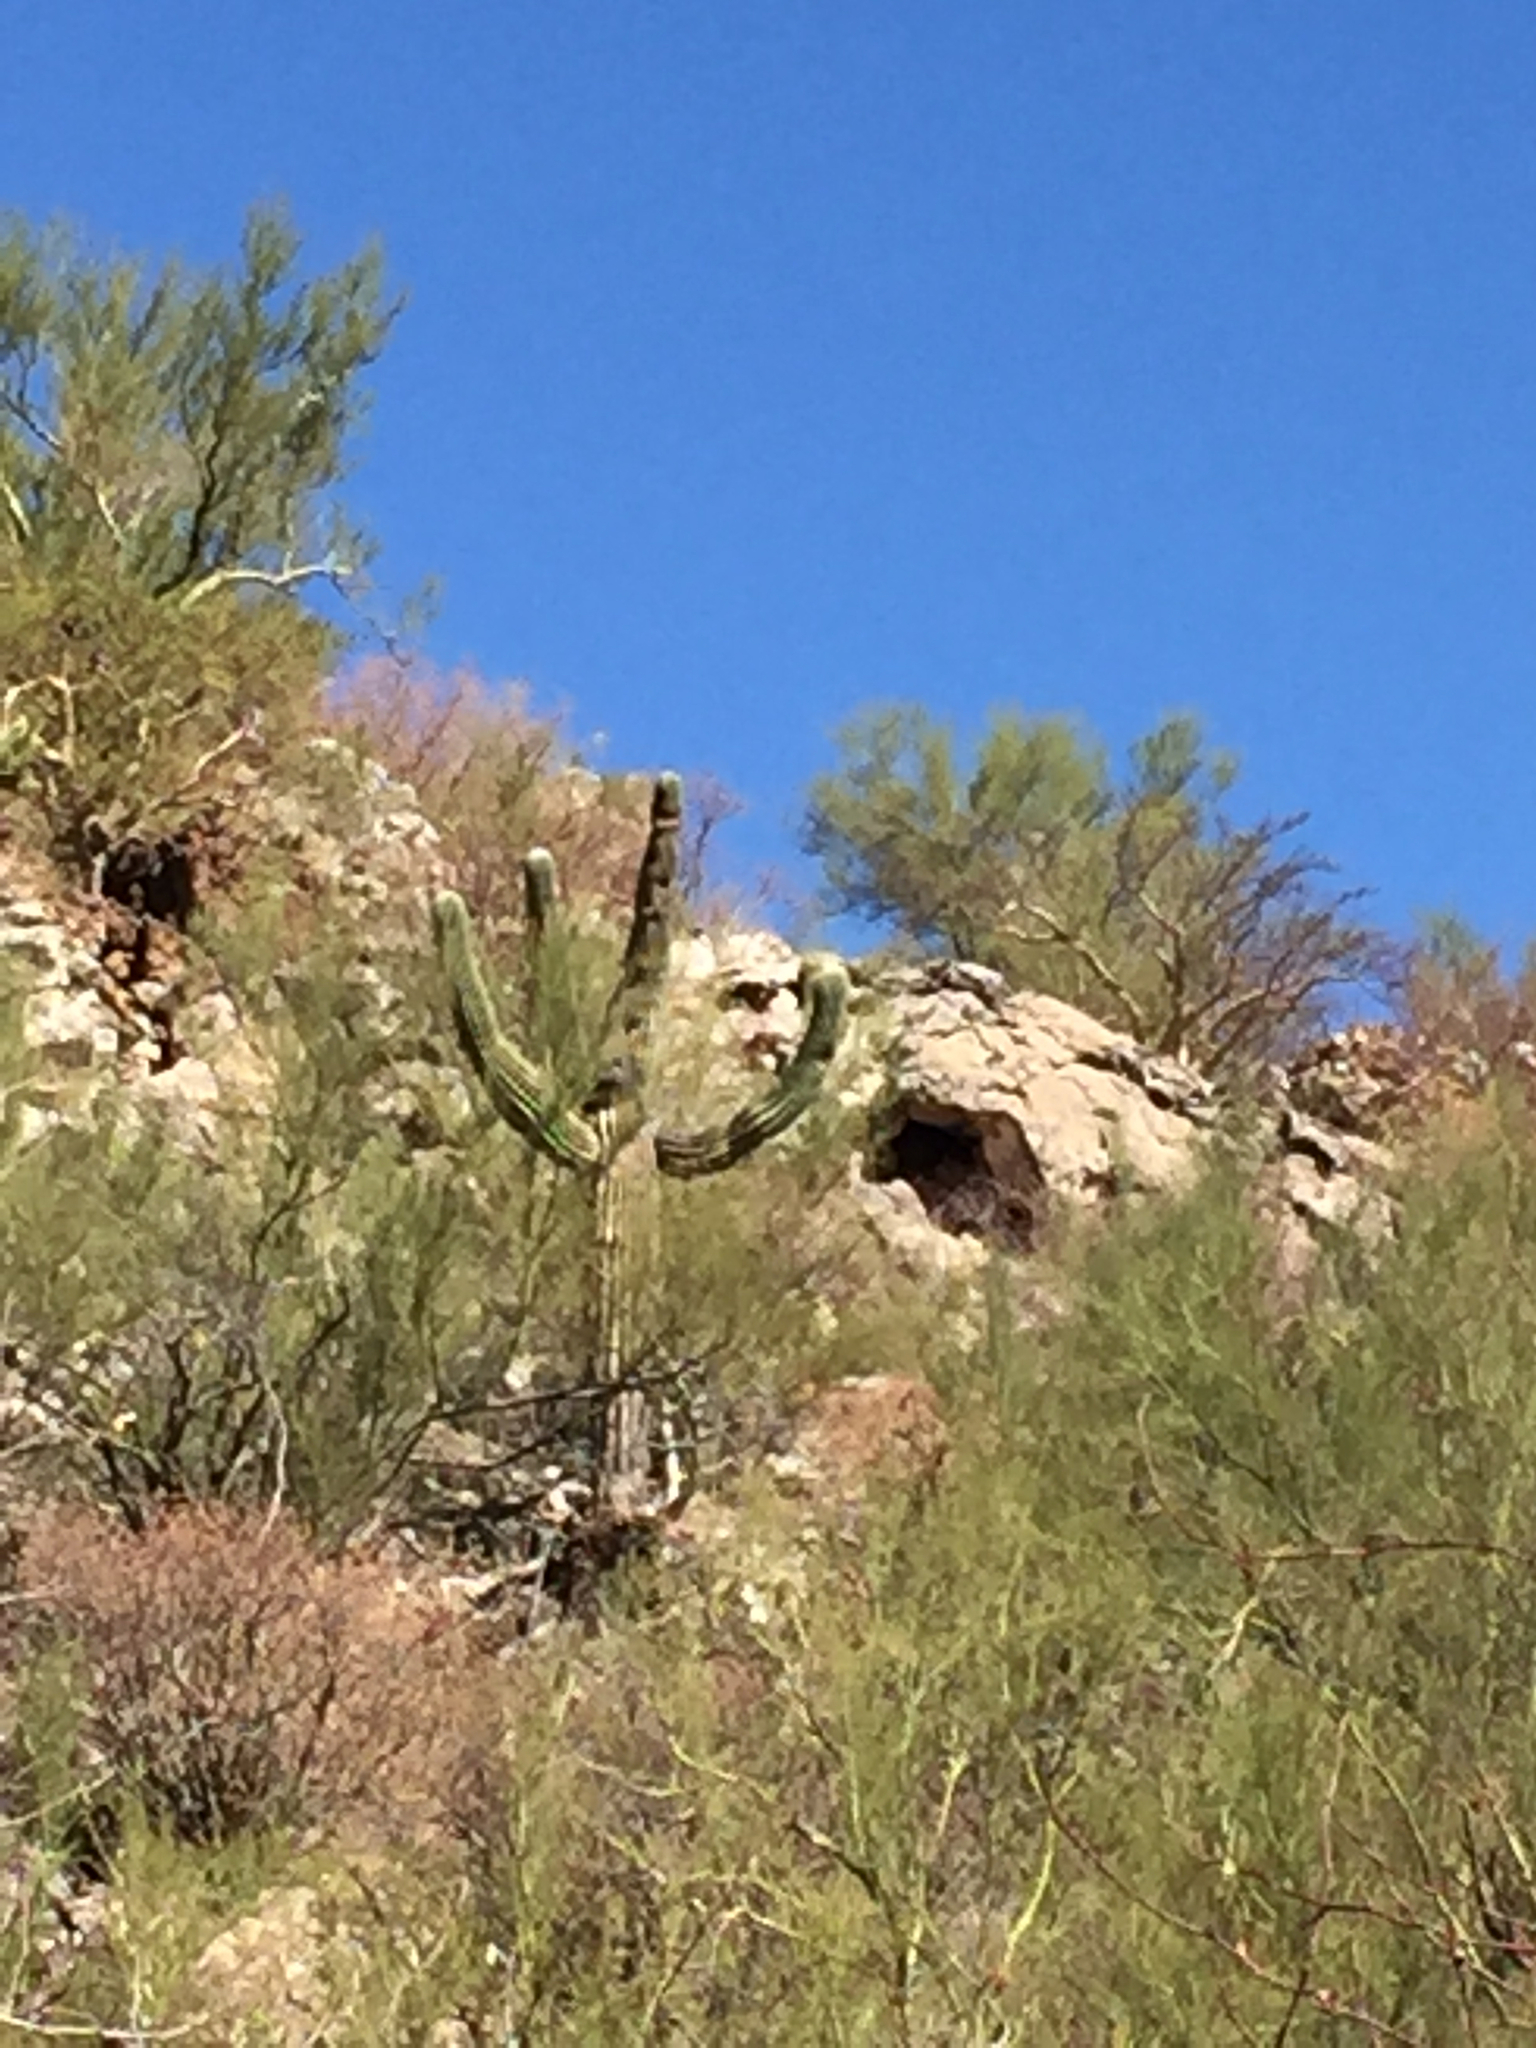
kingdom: Plantae
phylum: Tracheophyta
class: Magnoliopsida
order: Caryophyllales
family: Cactaceae
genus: Carnegiea
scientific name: Carnegiea gigantea
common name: Saguaro
